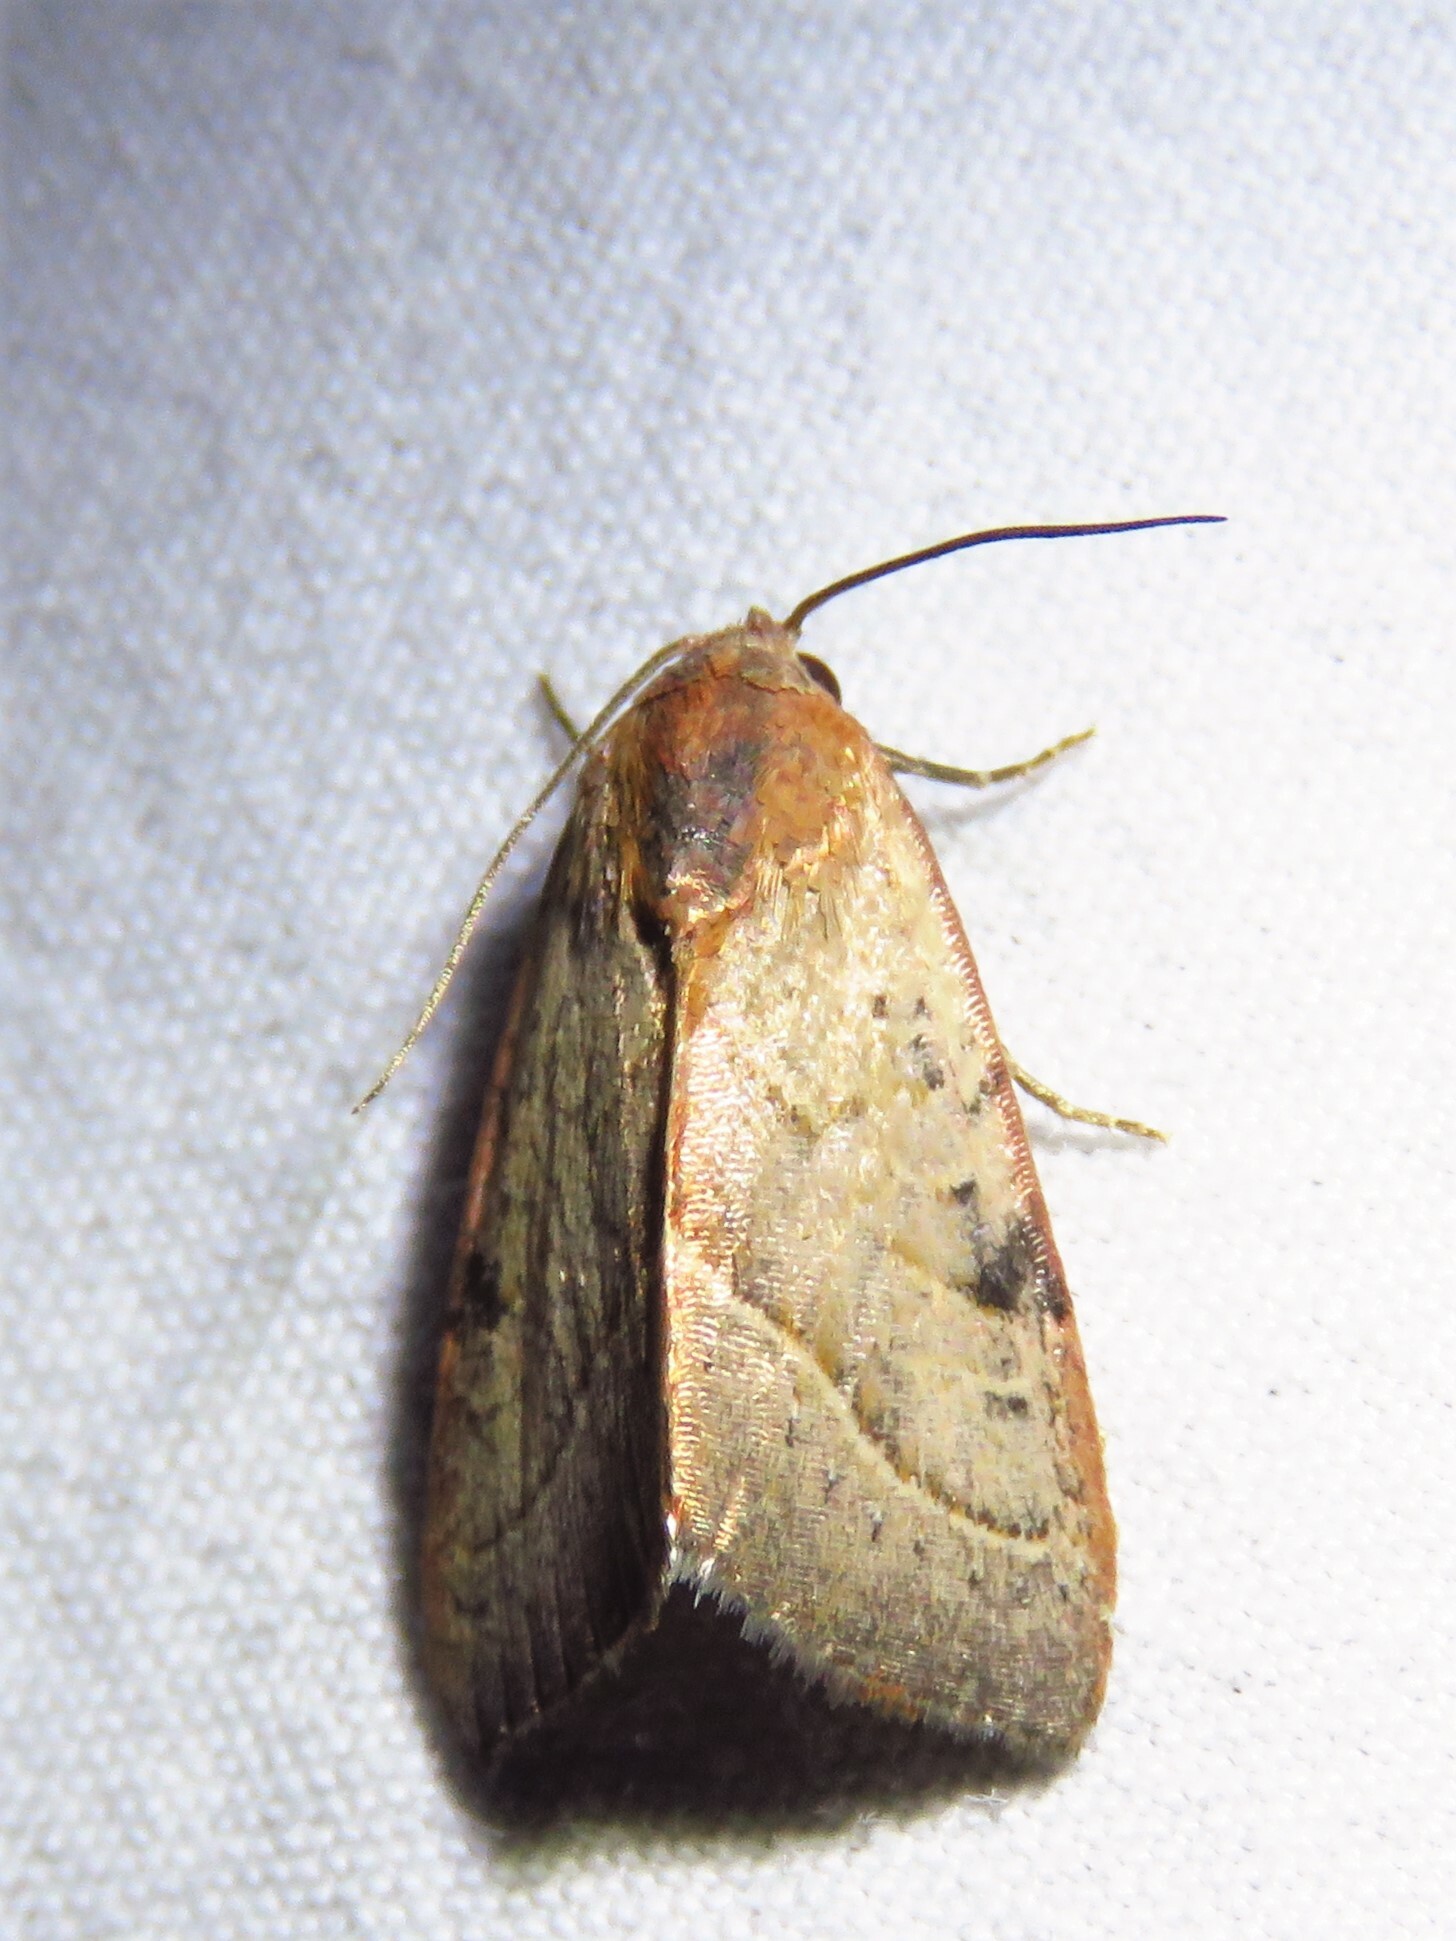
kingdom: Animalia
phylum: Arthropoda
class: Insecta
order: Lepidoptera
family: Noctuidae
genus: Galgula
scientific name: Galgula partita
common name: Wedgeling
